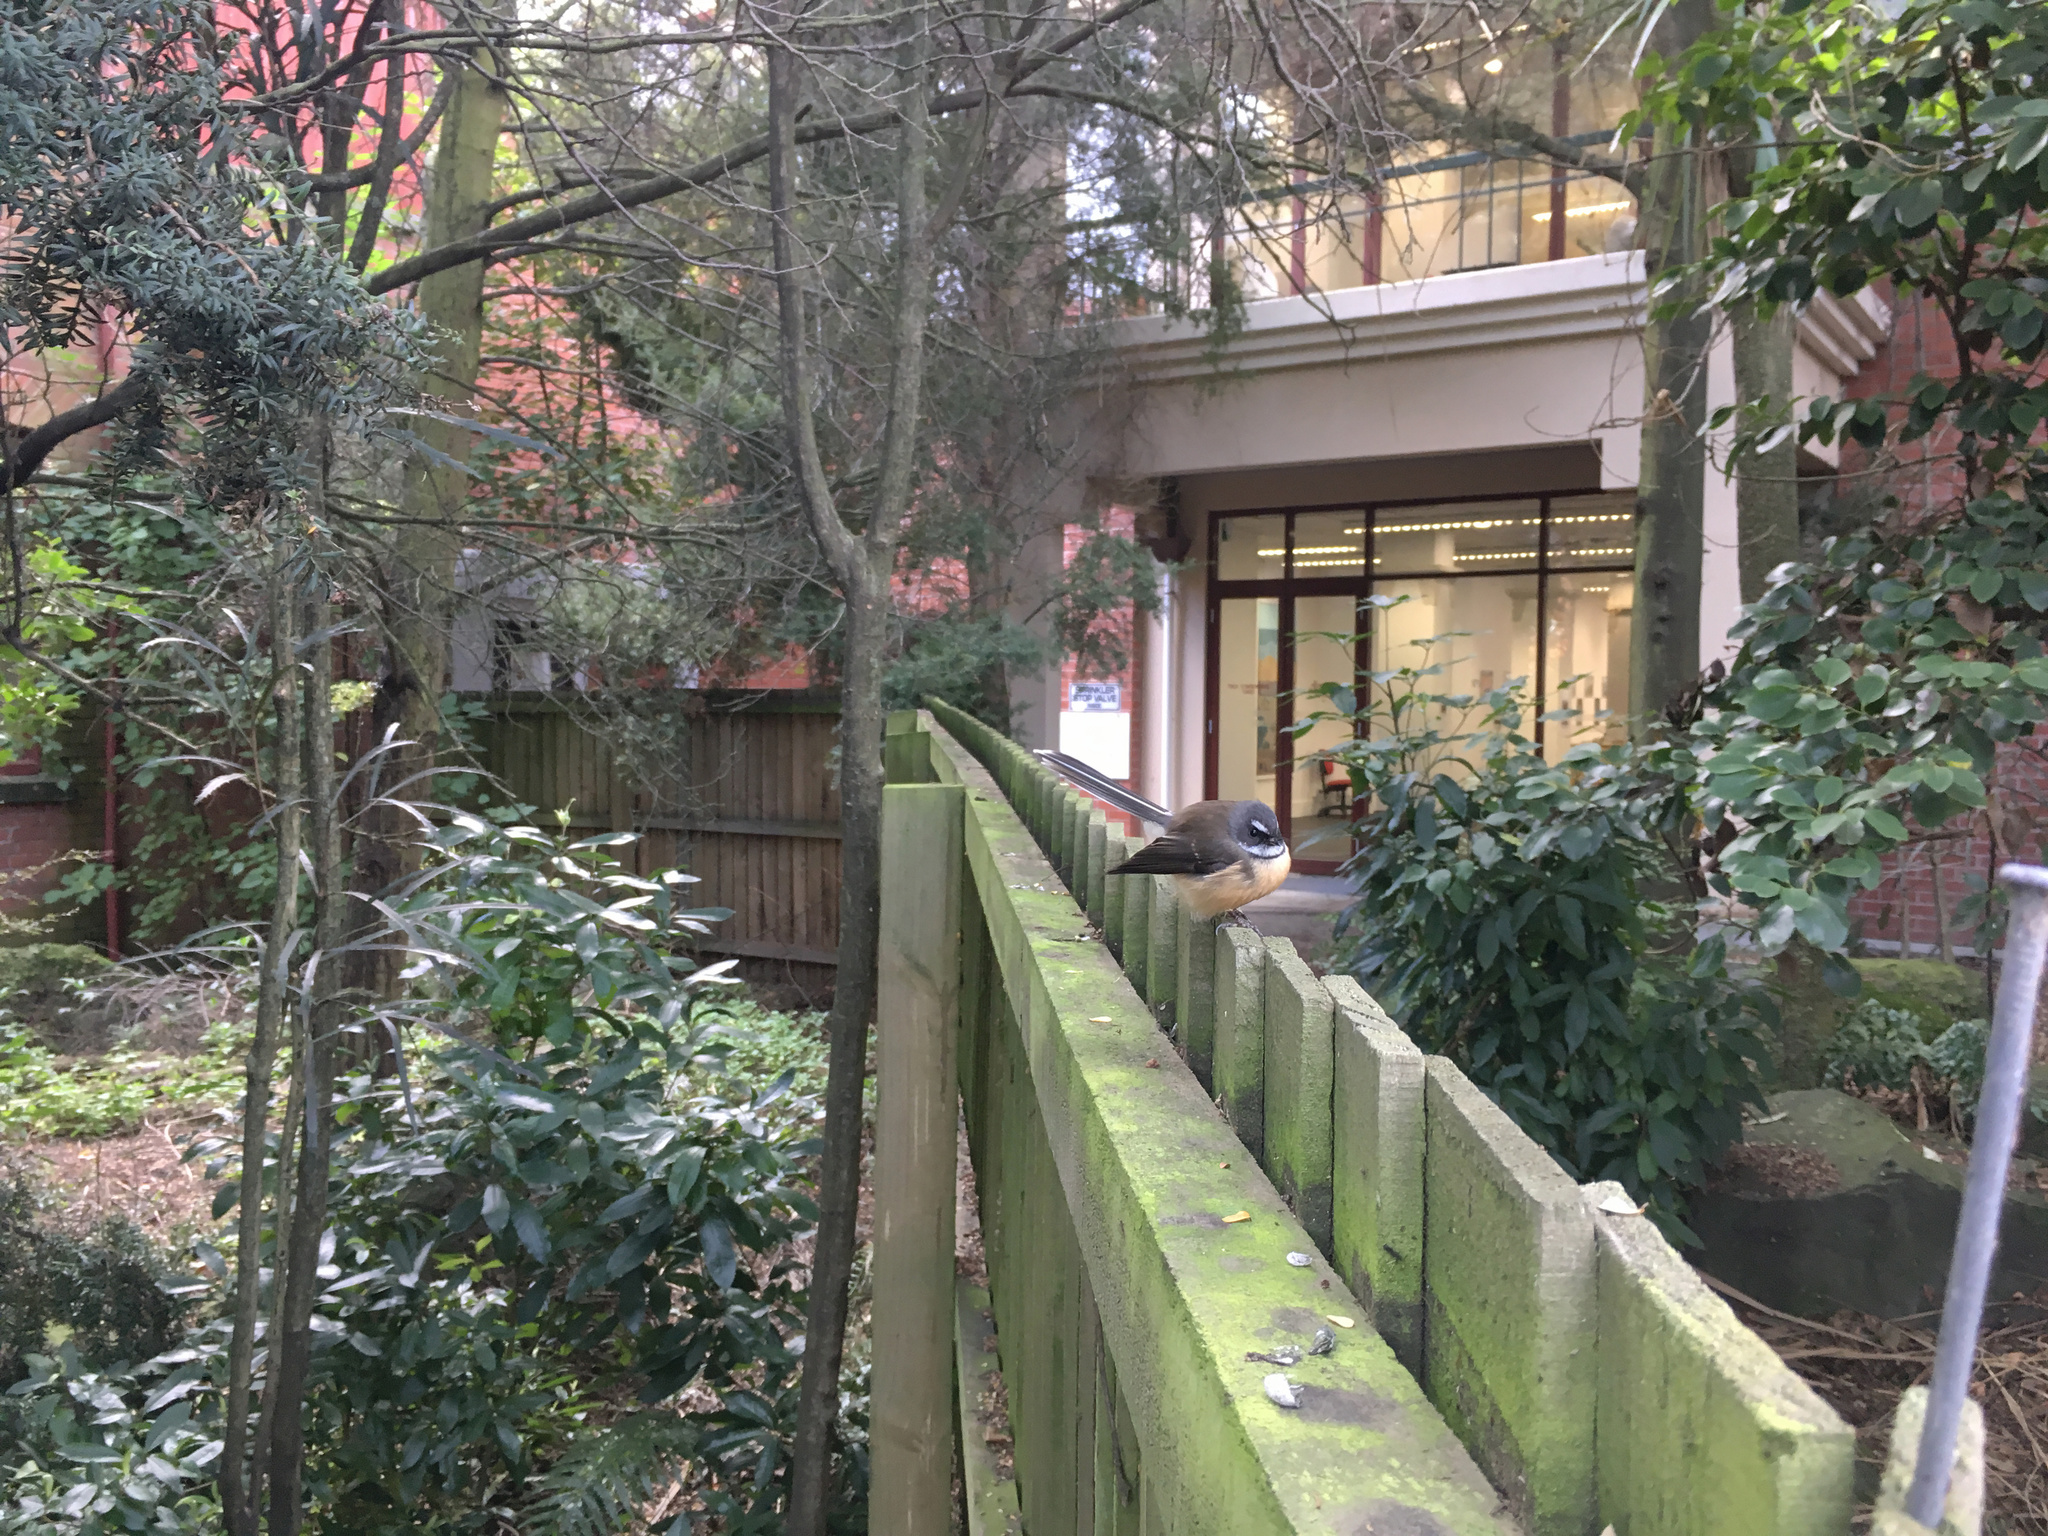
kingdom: Animalia
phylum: Chordata
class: Aves
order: Passeriformes
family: Rhipiduridae
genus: Rhipidura
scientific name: Rhipidura fuliginosa
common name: New zealand fantail
